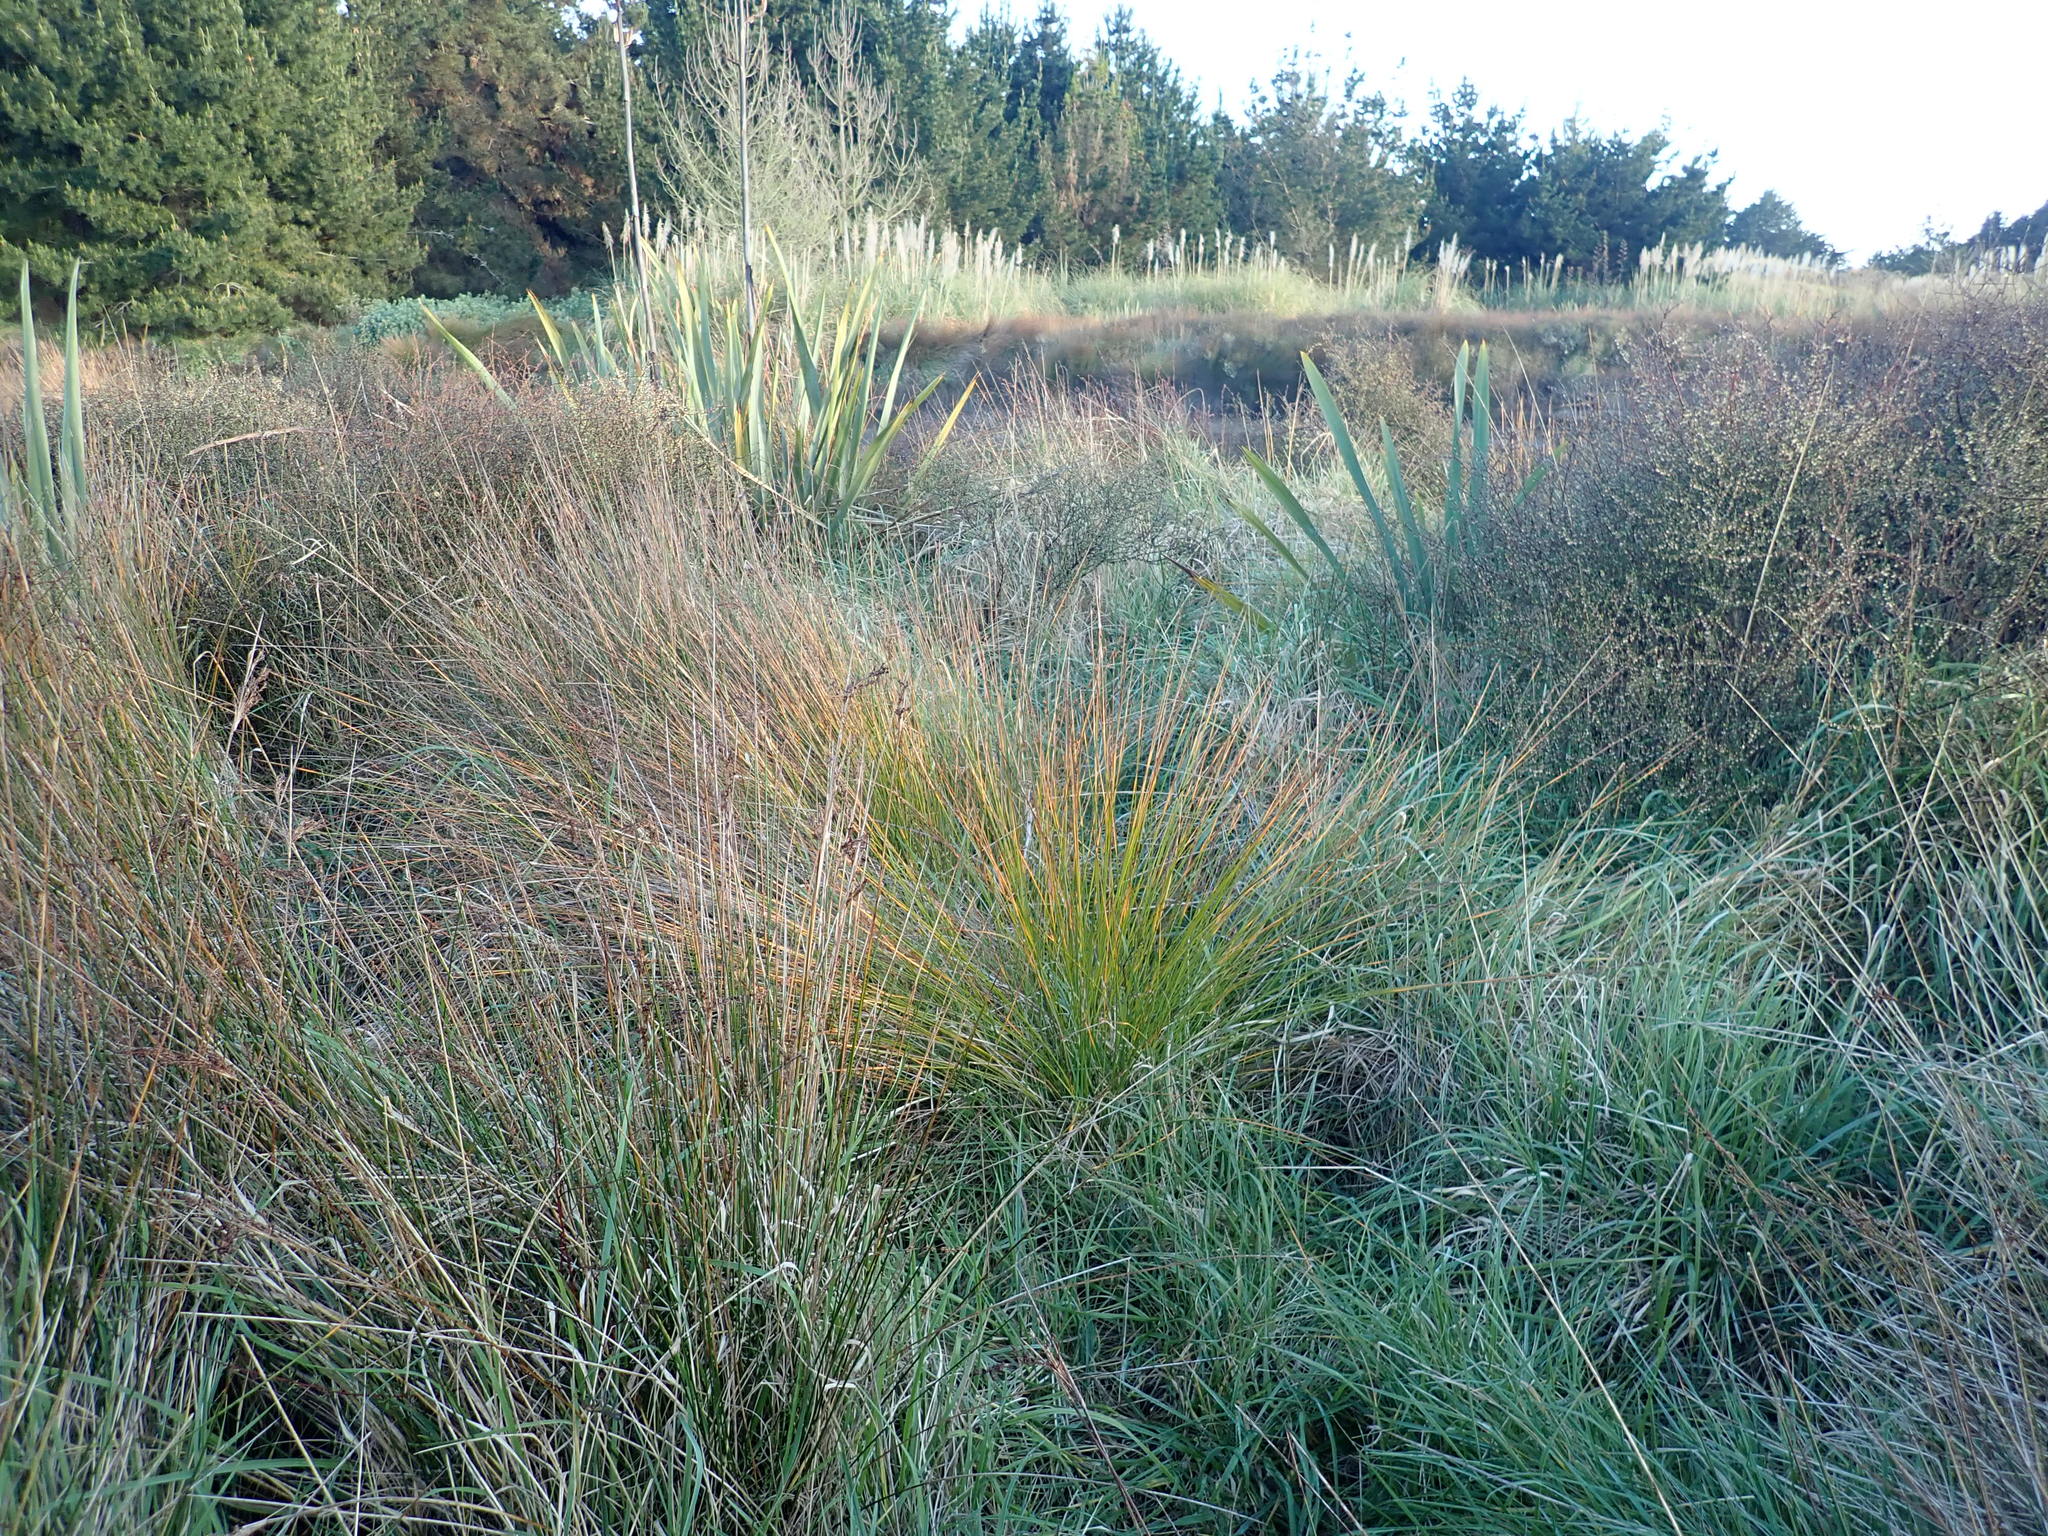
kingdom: Plantae
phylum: Tracheophyta
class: Liliopsida
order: Poales
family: Cyperaceae
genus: Ficinia
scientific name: Ficinia nodosa
